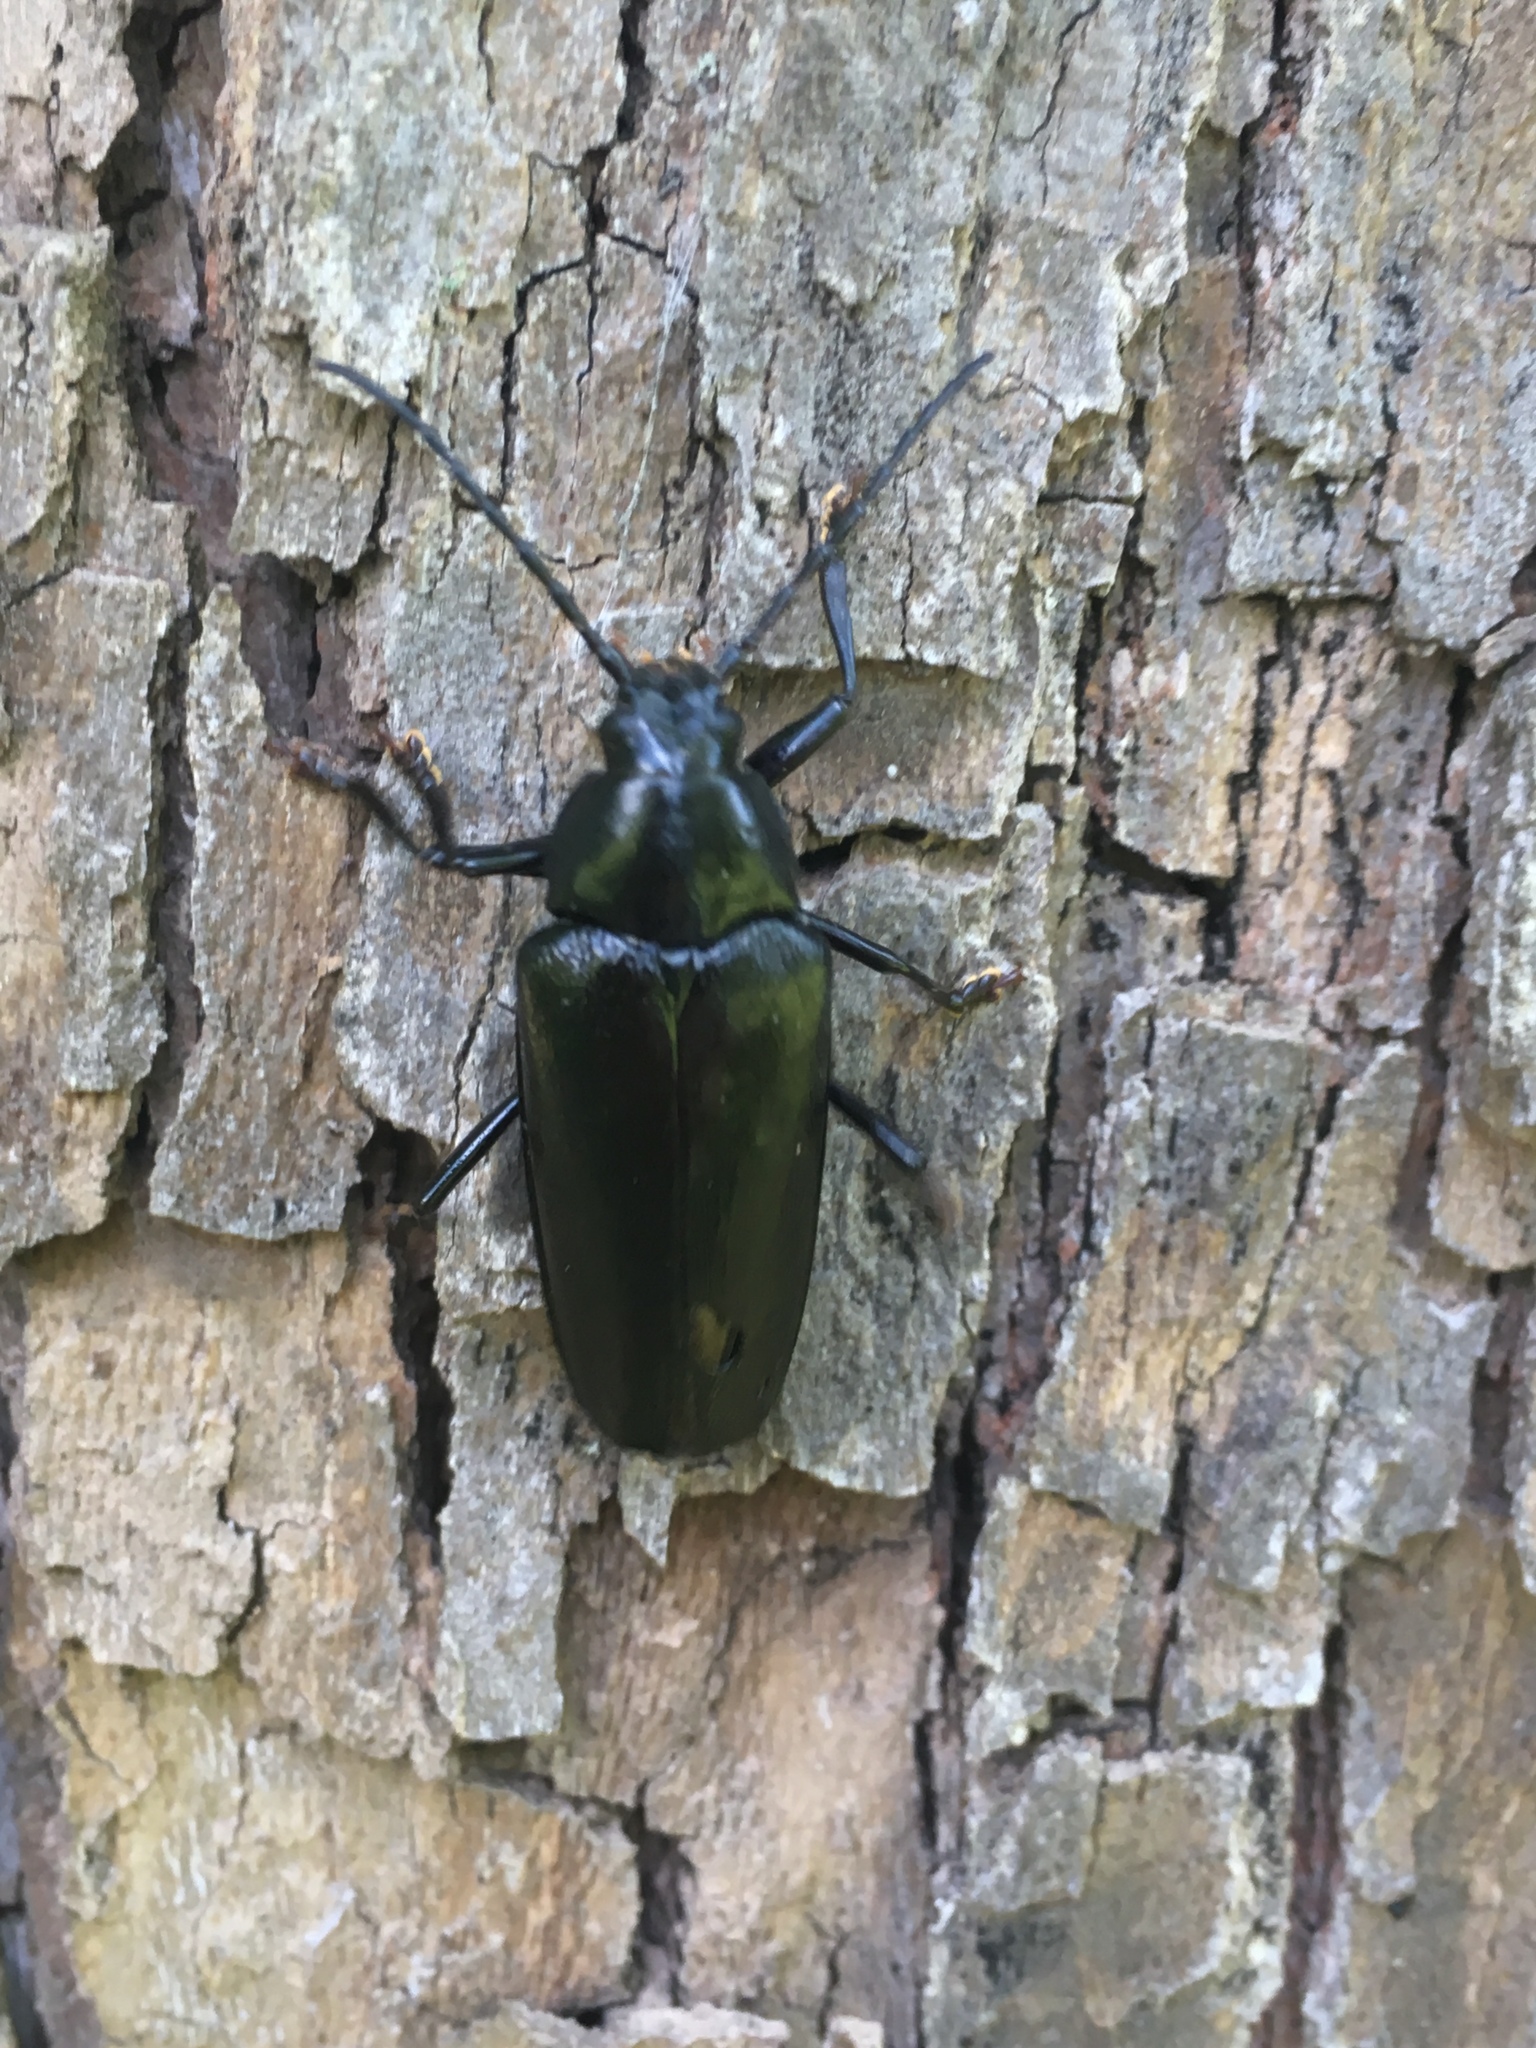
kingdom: Animalia
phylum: Arthropoda
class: Insecta
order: Coleoptera
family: Cerambycidae
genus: Sphenostethus
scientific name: Sphenostethus taslei
